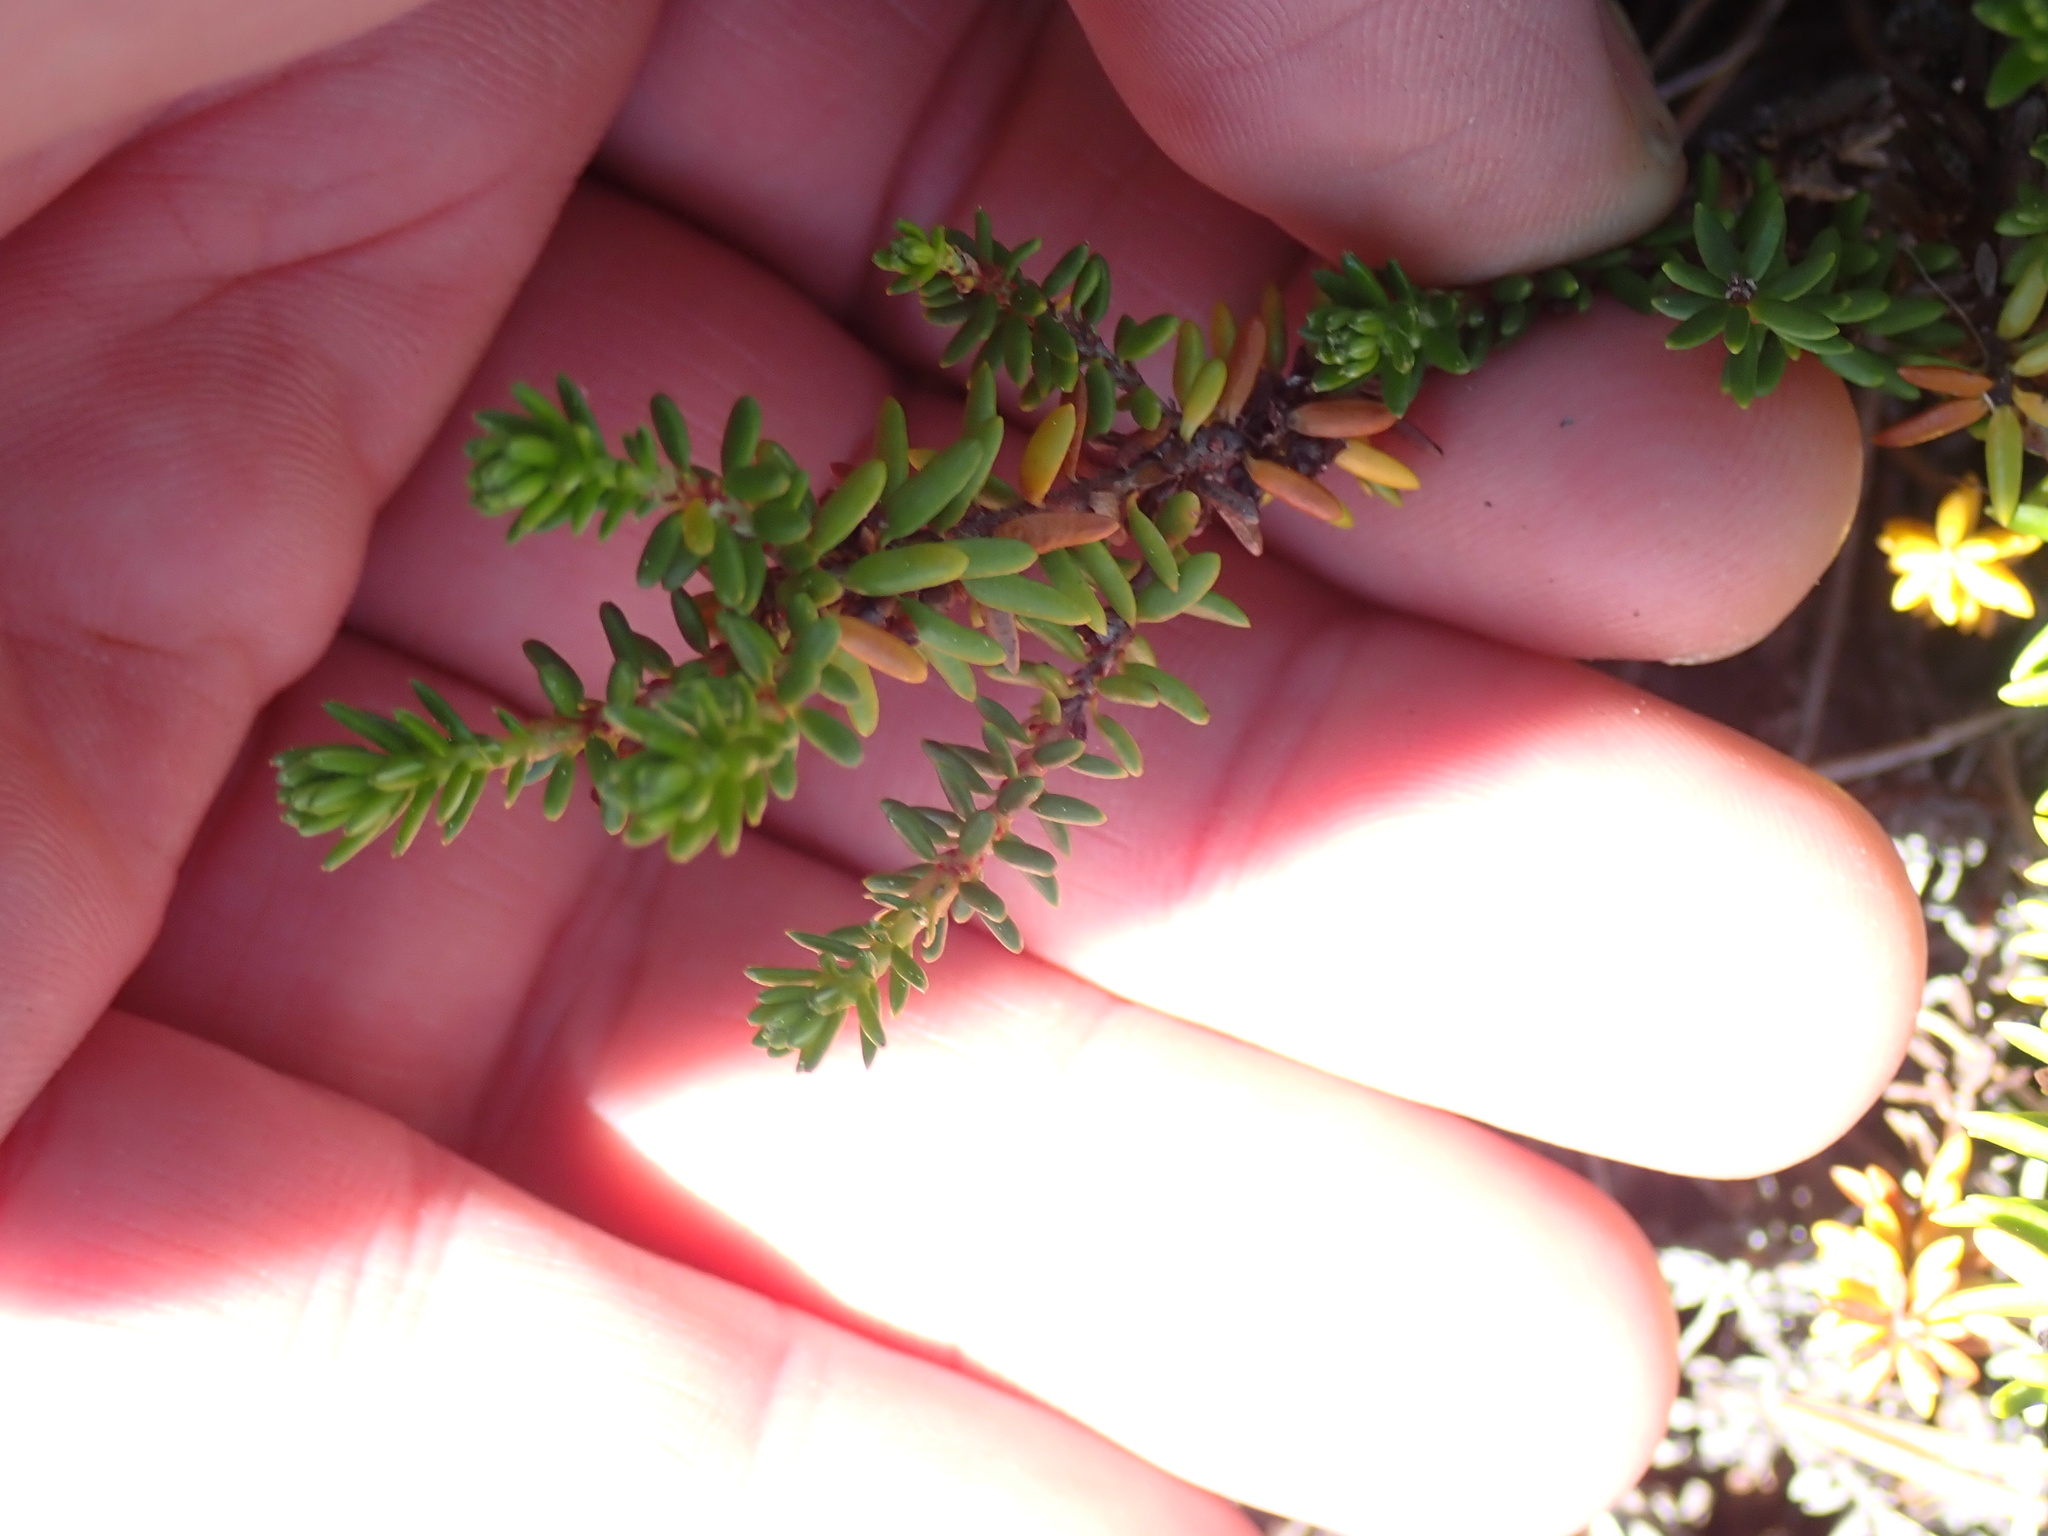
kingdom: Plantae
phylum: Tracheophyta
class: Magnoliopsida
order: Ericales
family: Ericaceae
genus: Empetrum
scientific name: Empetrum nigrum
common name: Black crowberry
